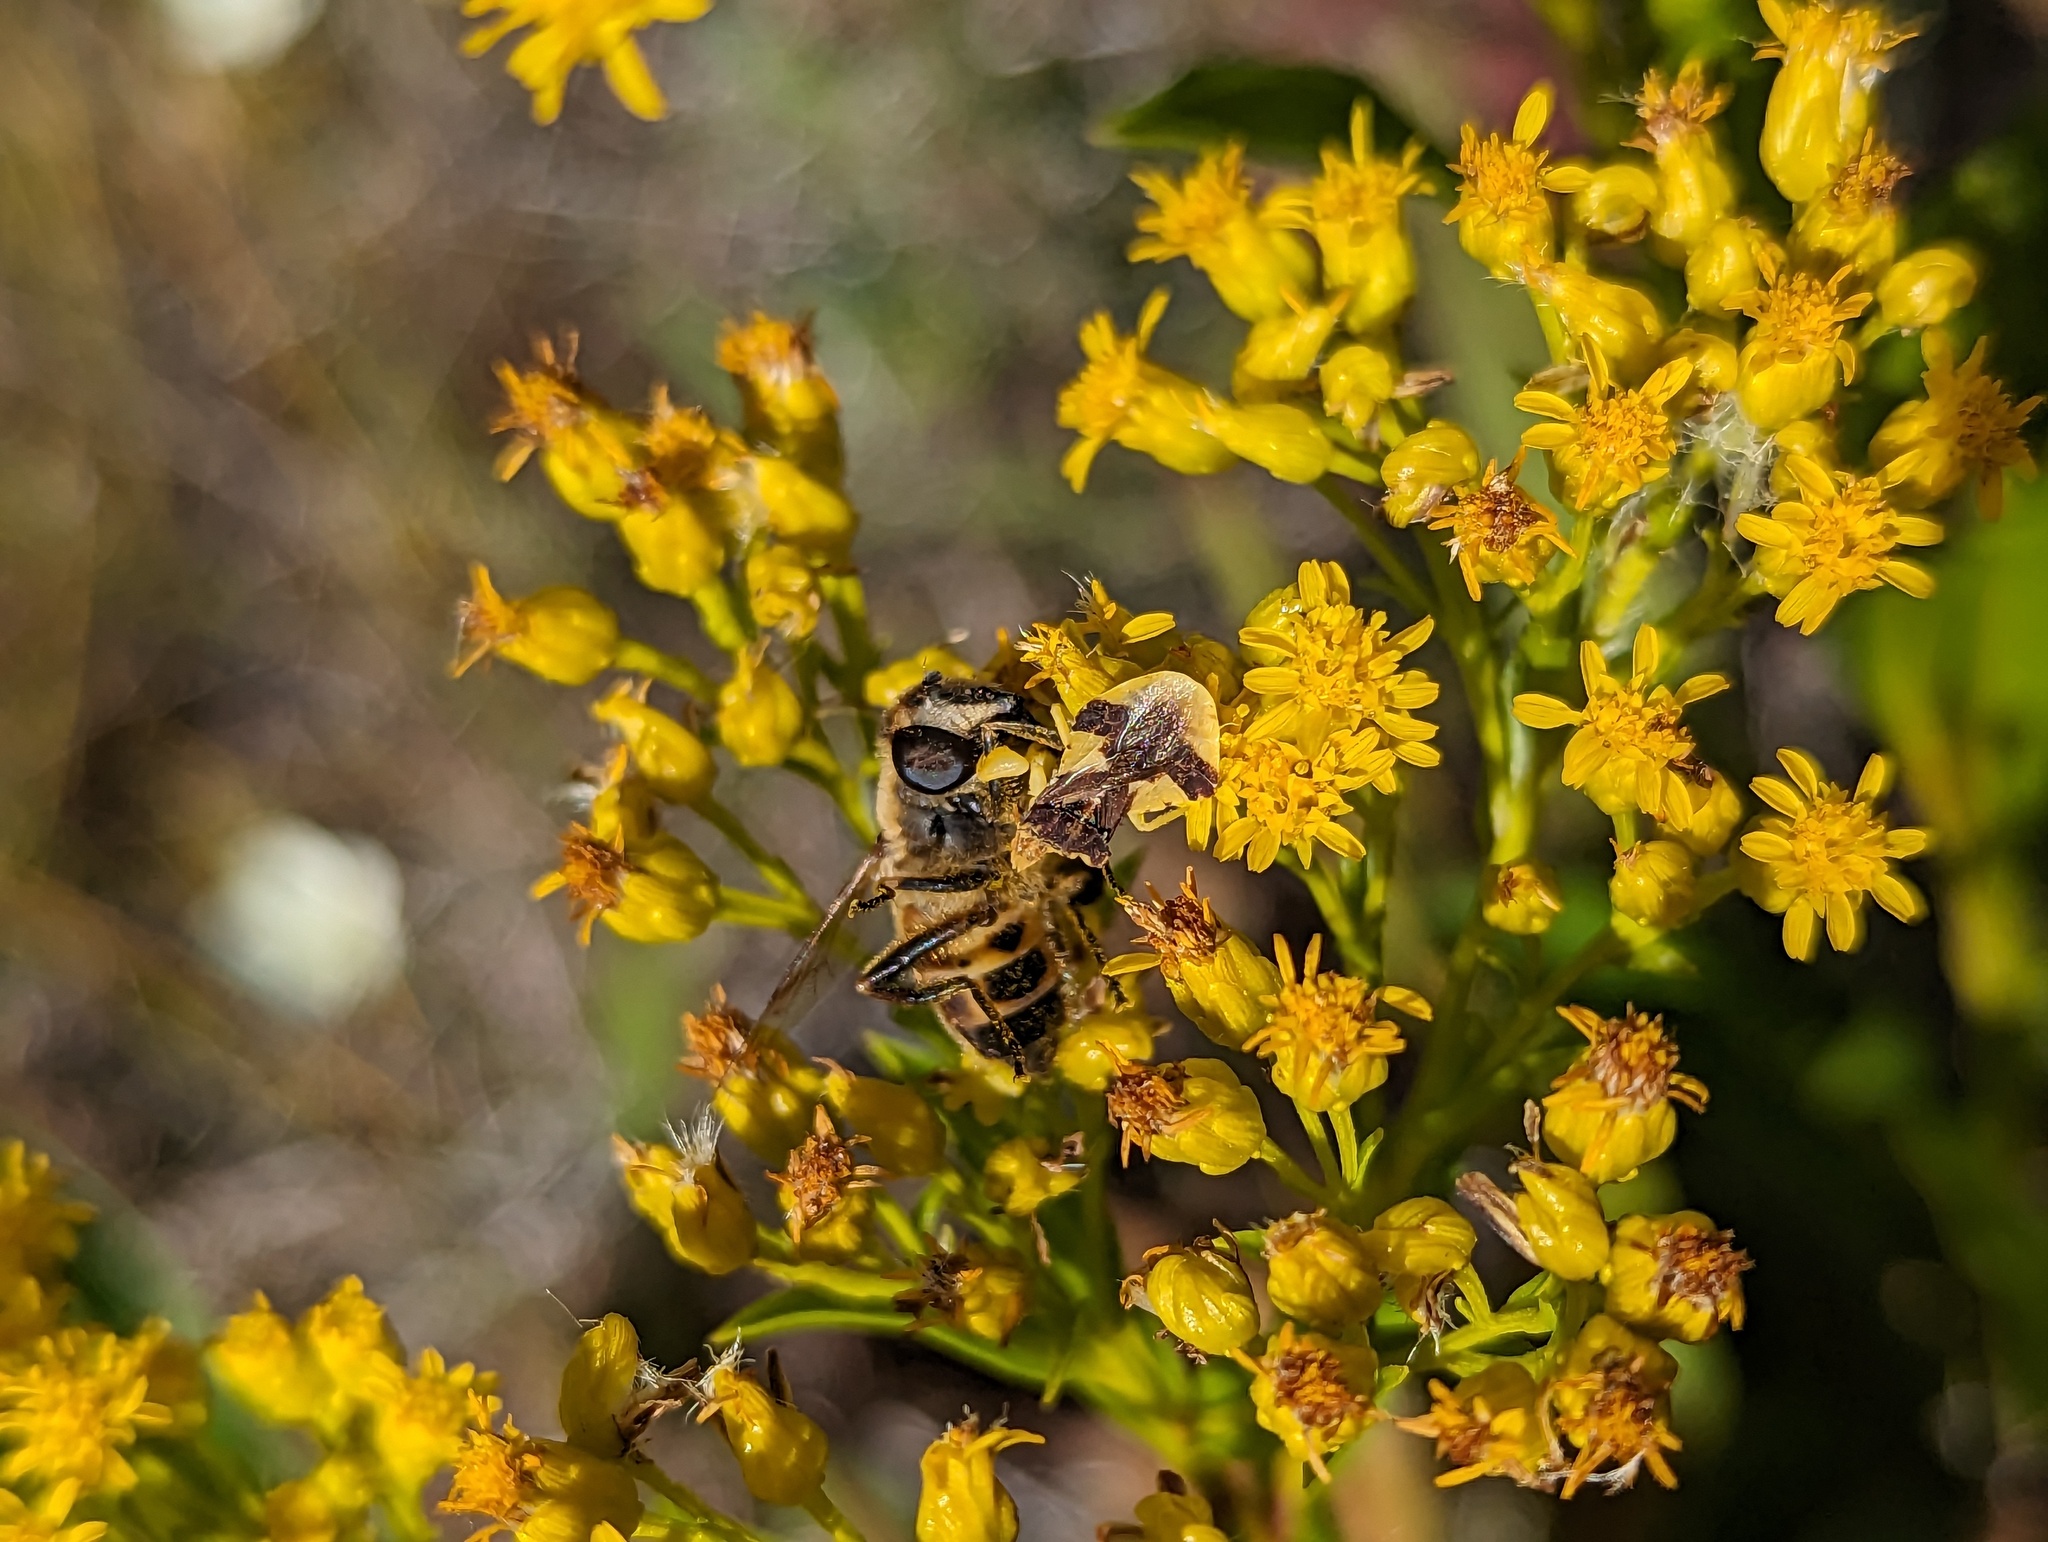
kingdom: Animalia
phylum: Arthropoda
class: Insecta
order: Diptera
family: Syrphidae
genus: Eristalis
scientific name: Eristalis tenax
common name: Drone fly
